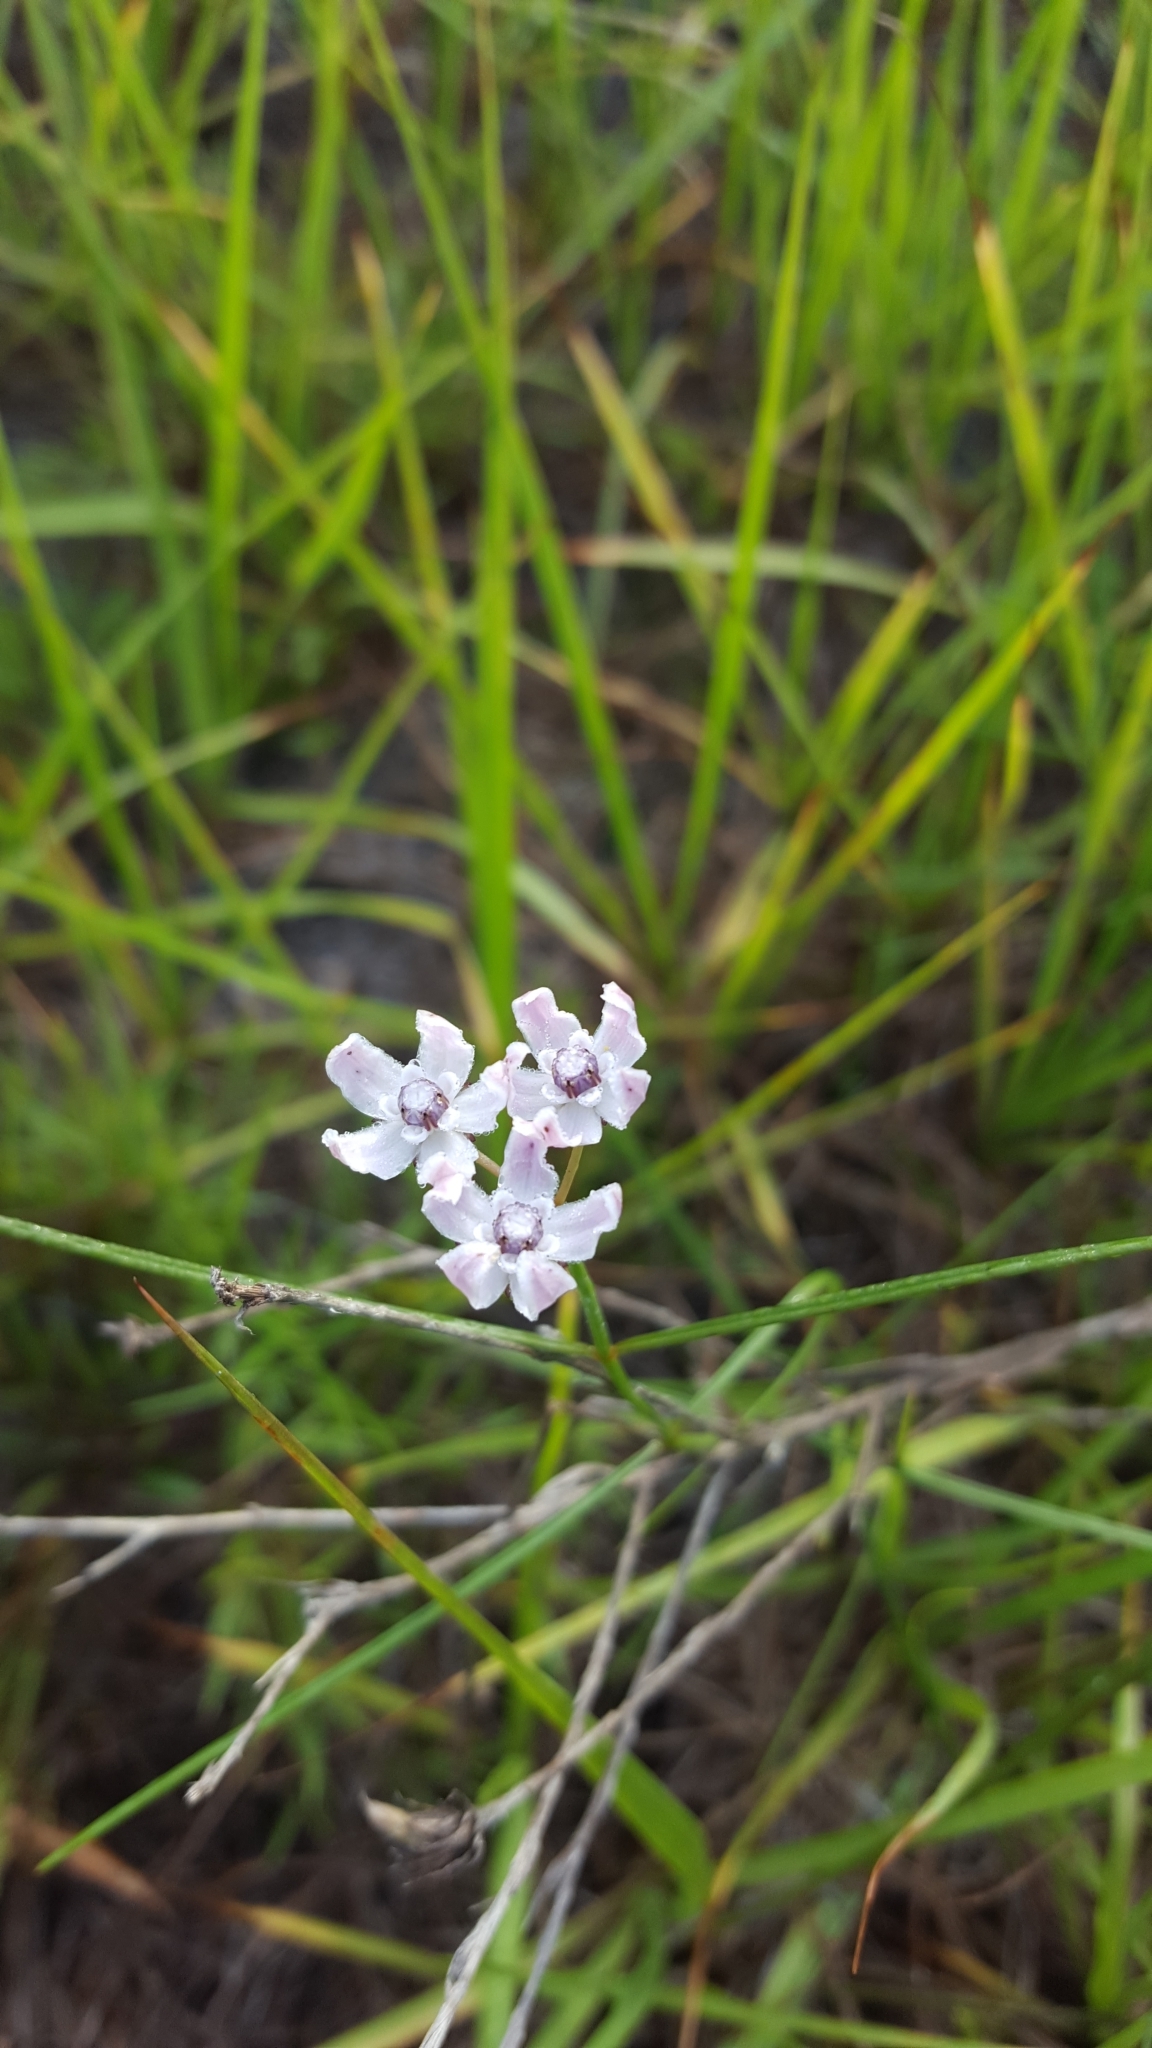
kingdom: Plantae
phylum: Tracheophyta
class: Magnoliopsida
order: Gentianales
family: Apocynaceae
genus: Asclepias
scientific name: Asclepias feayi
